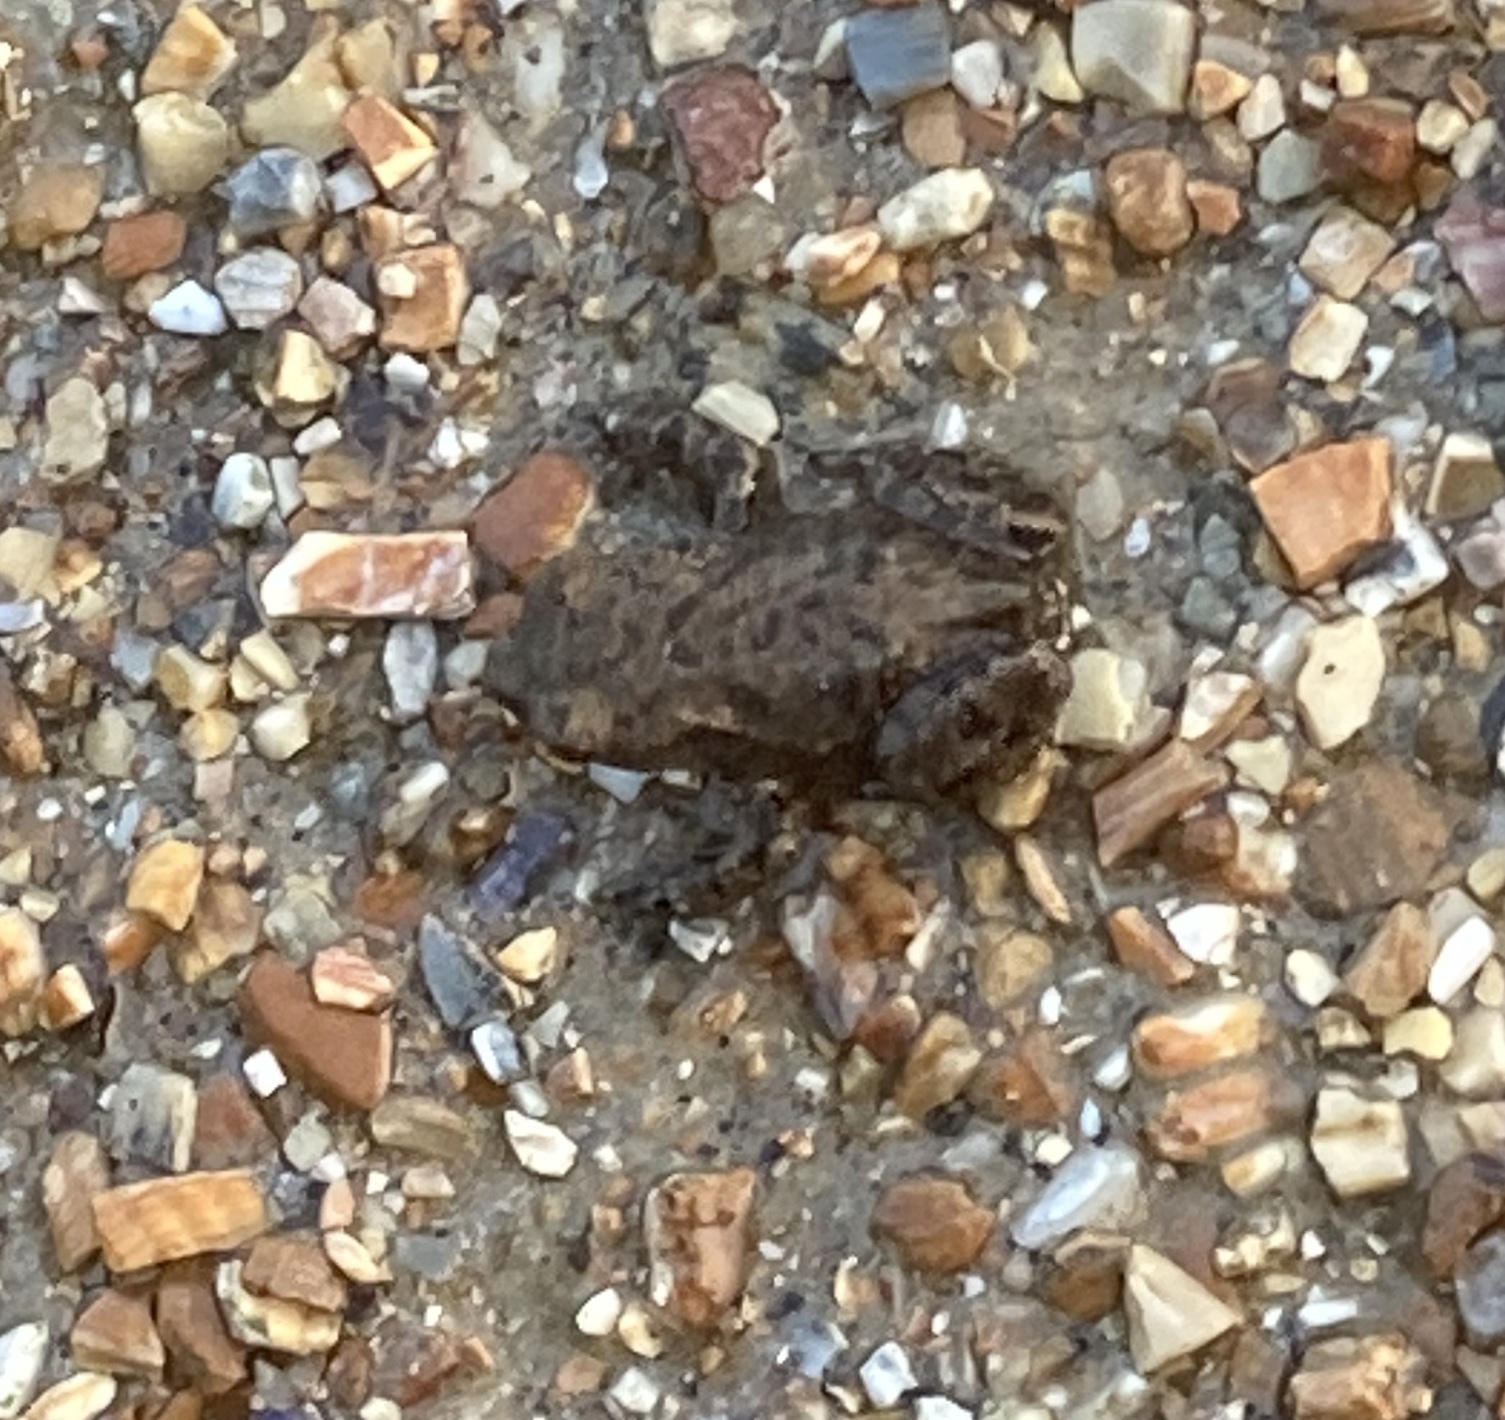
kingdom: Animalia
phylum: Chordata
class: Amphibia
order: Anura
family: Bufonidae
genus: Bufo
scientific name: Bufo bufo
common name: Common toad
